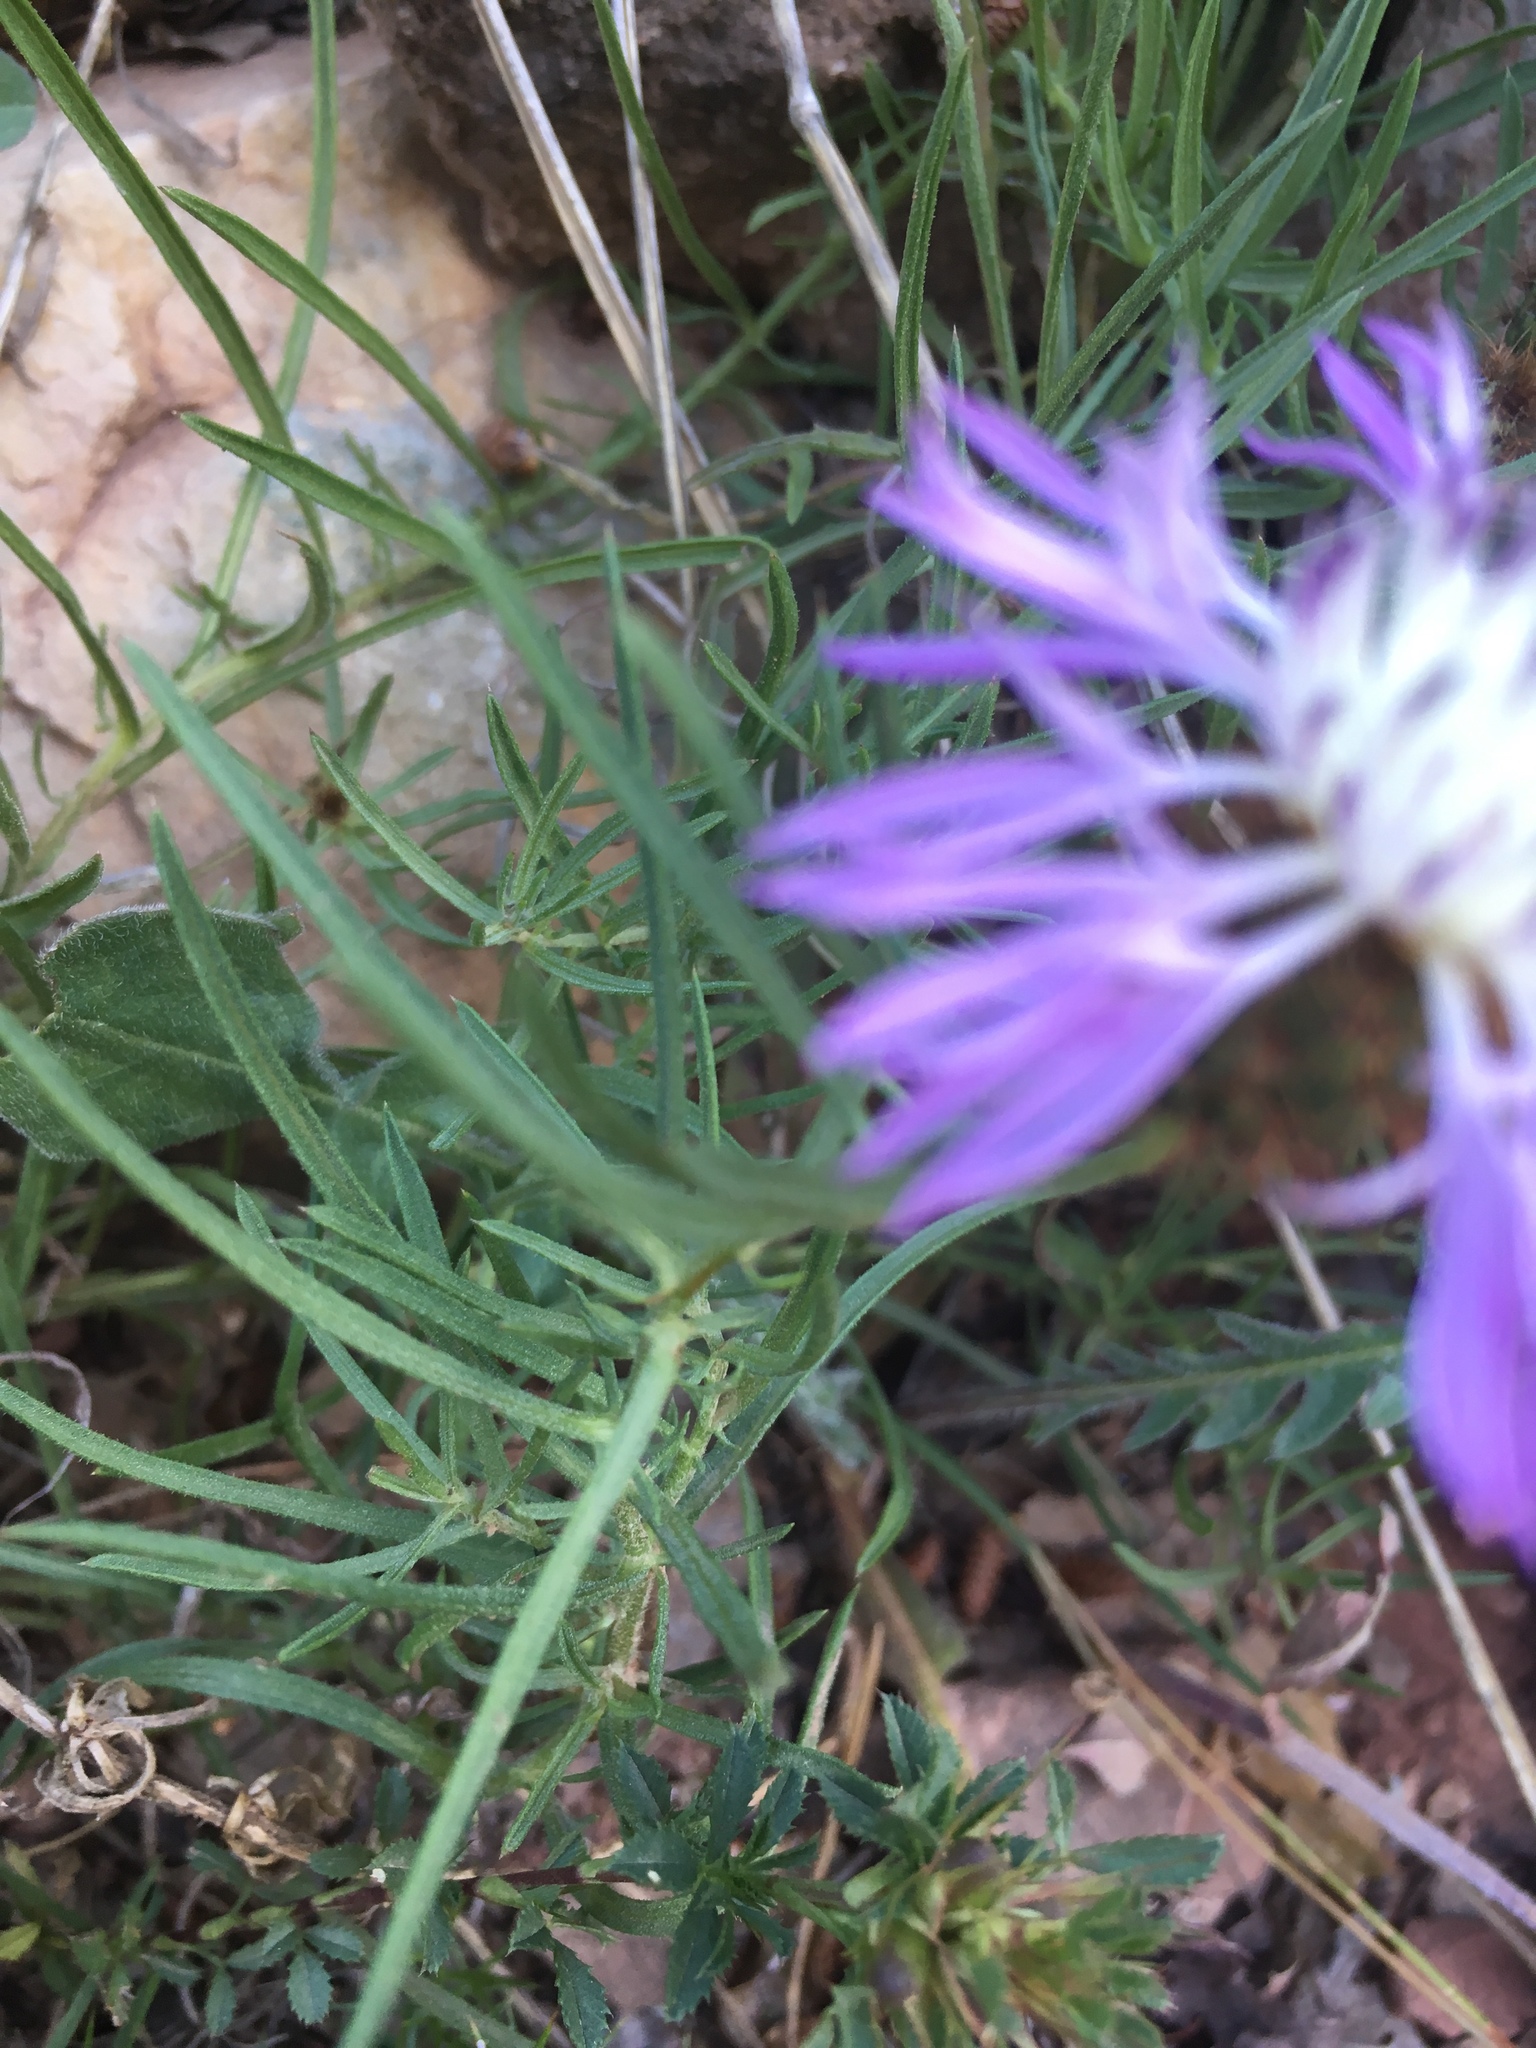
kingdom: Plantae
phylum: Tracheophyta
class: Magnoliopsida
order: Asterales
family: Asteraceae
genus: Centaurea
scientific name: Centaurea linifolia
